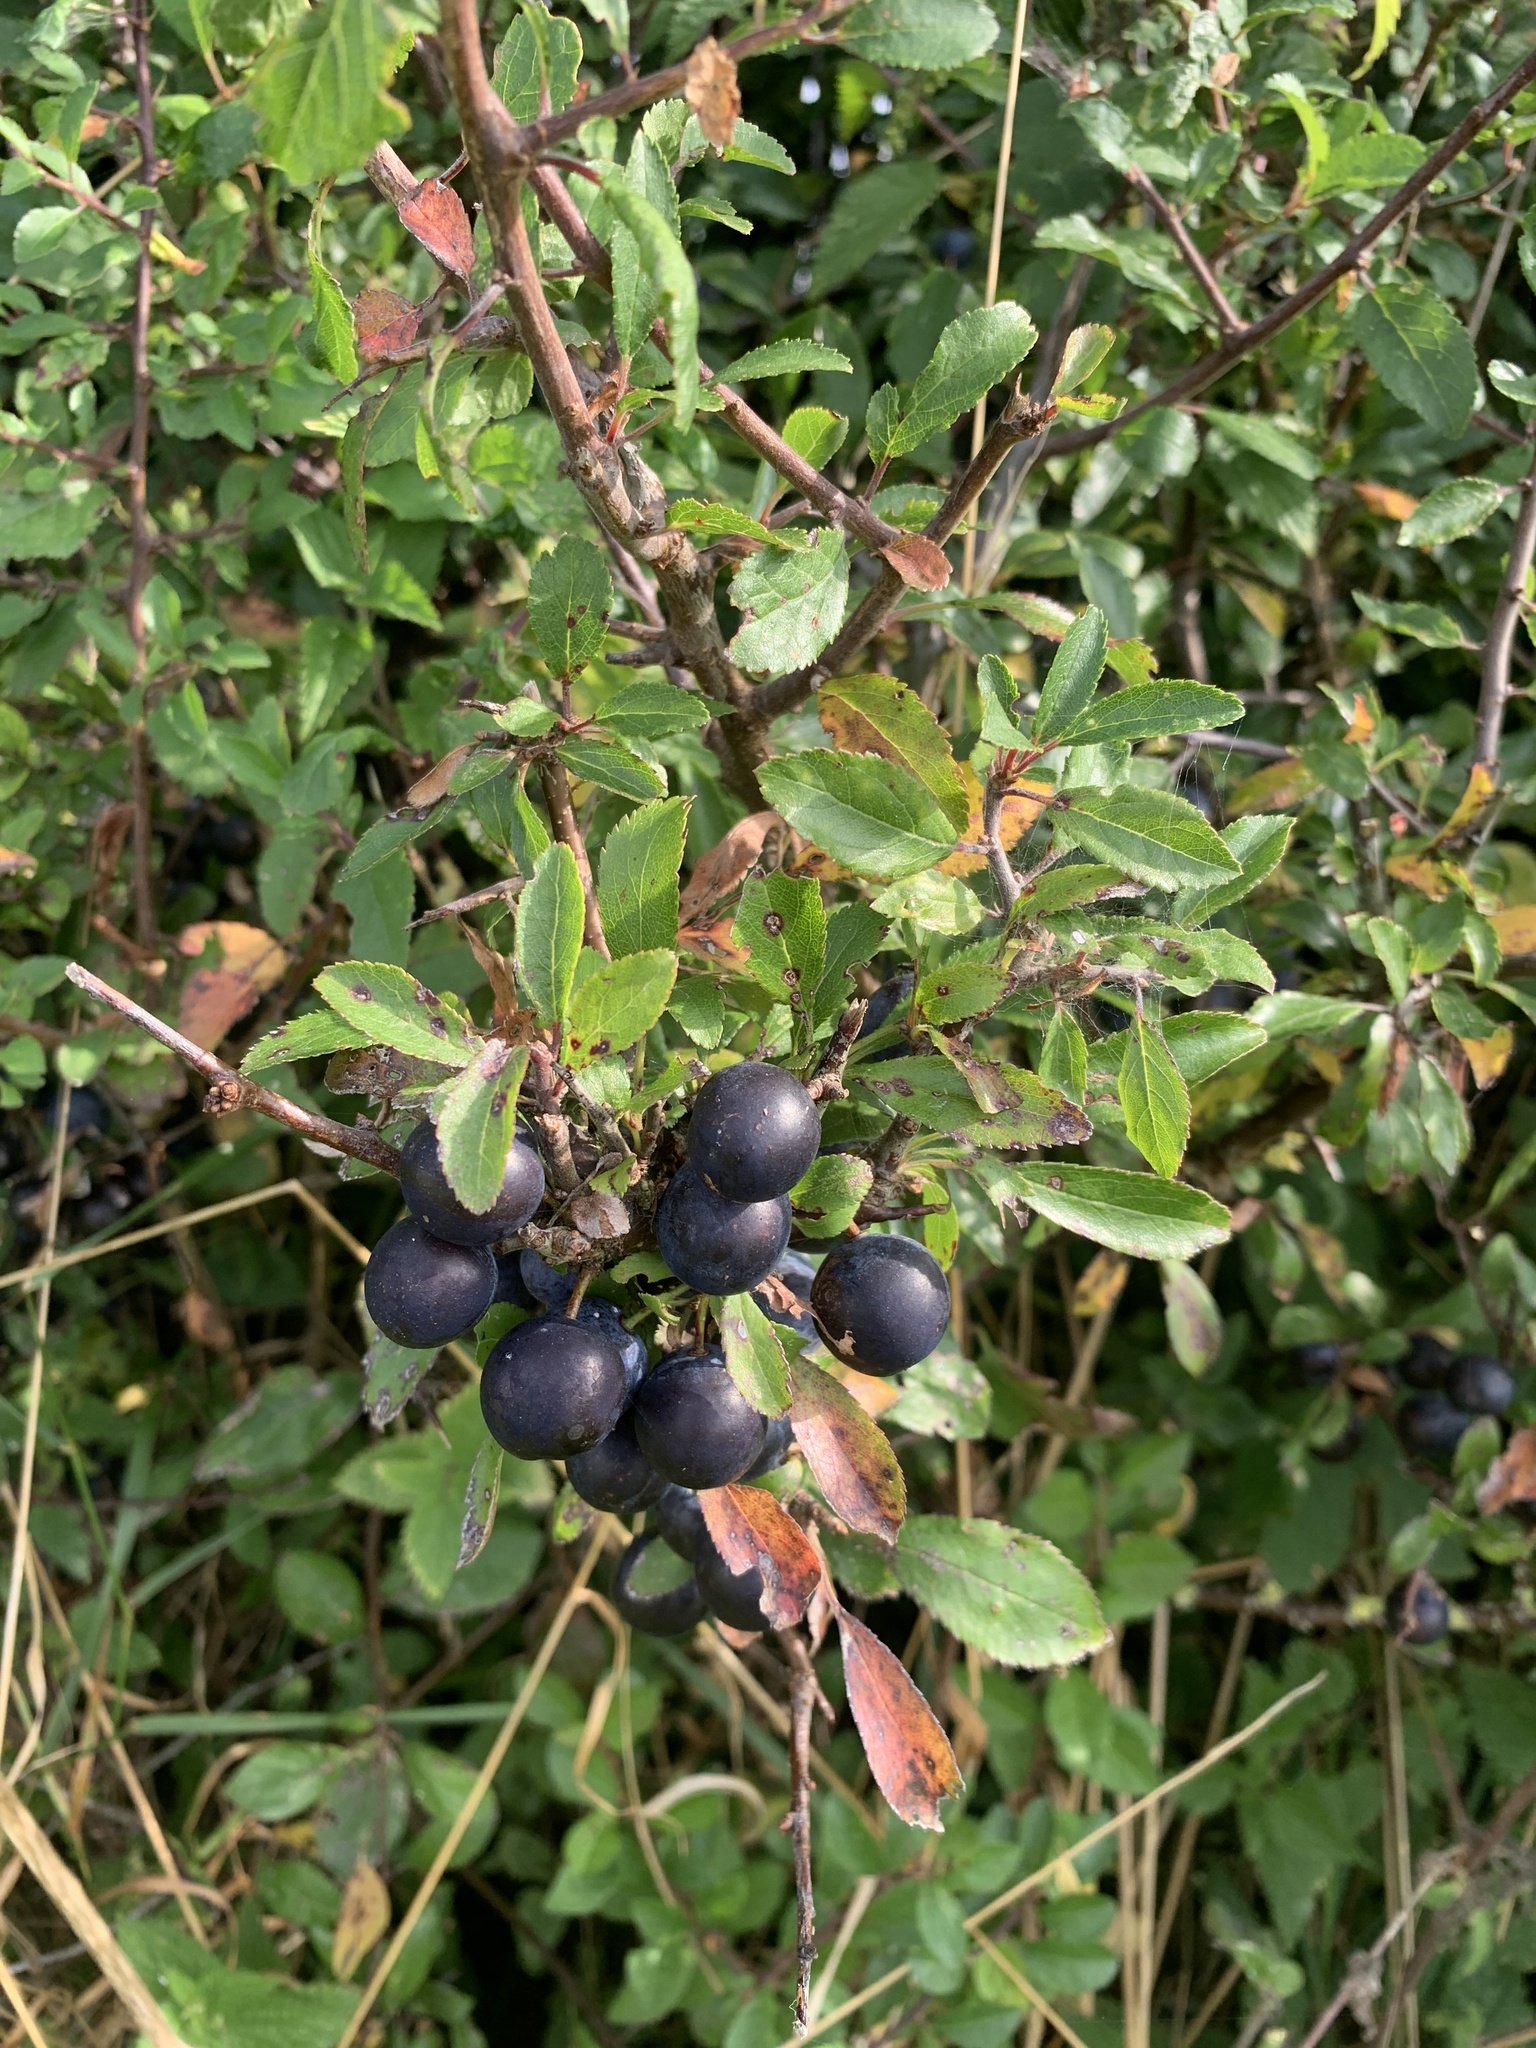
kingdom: Plantae
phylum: Tracheophyta
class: Magnoliopsida
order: Rosales
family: Rosaceae
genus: Prunus
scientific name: Prunus spinosa
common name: Blackthorn
